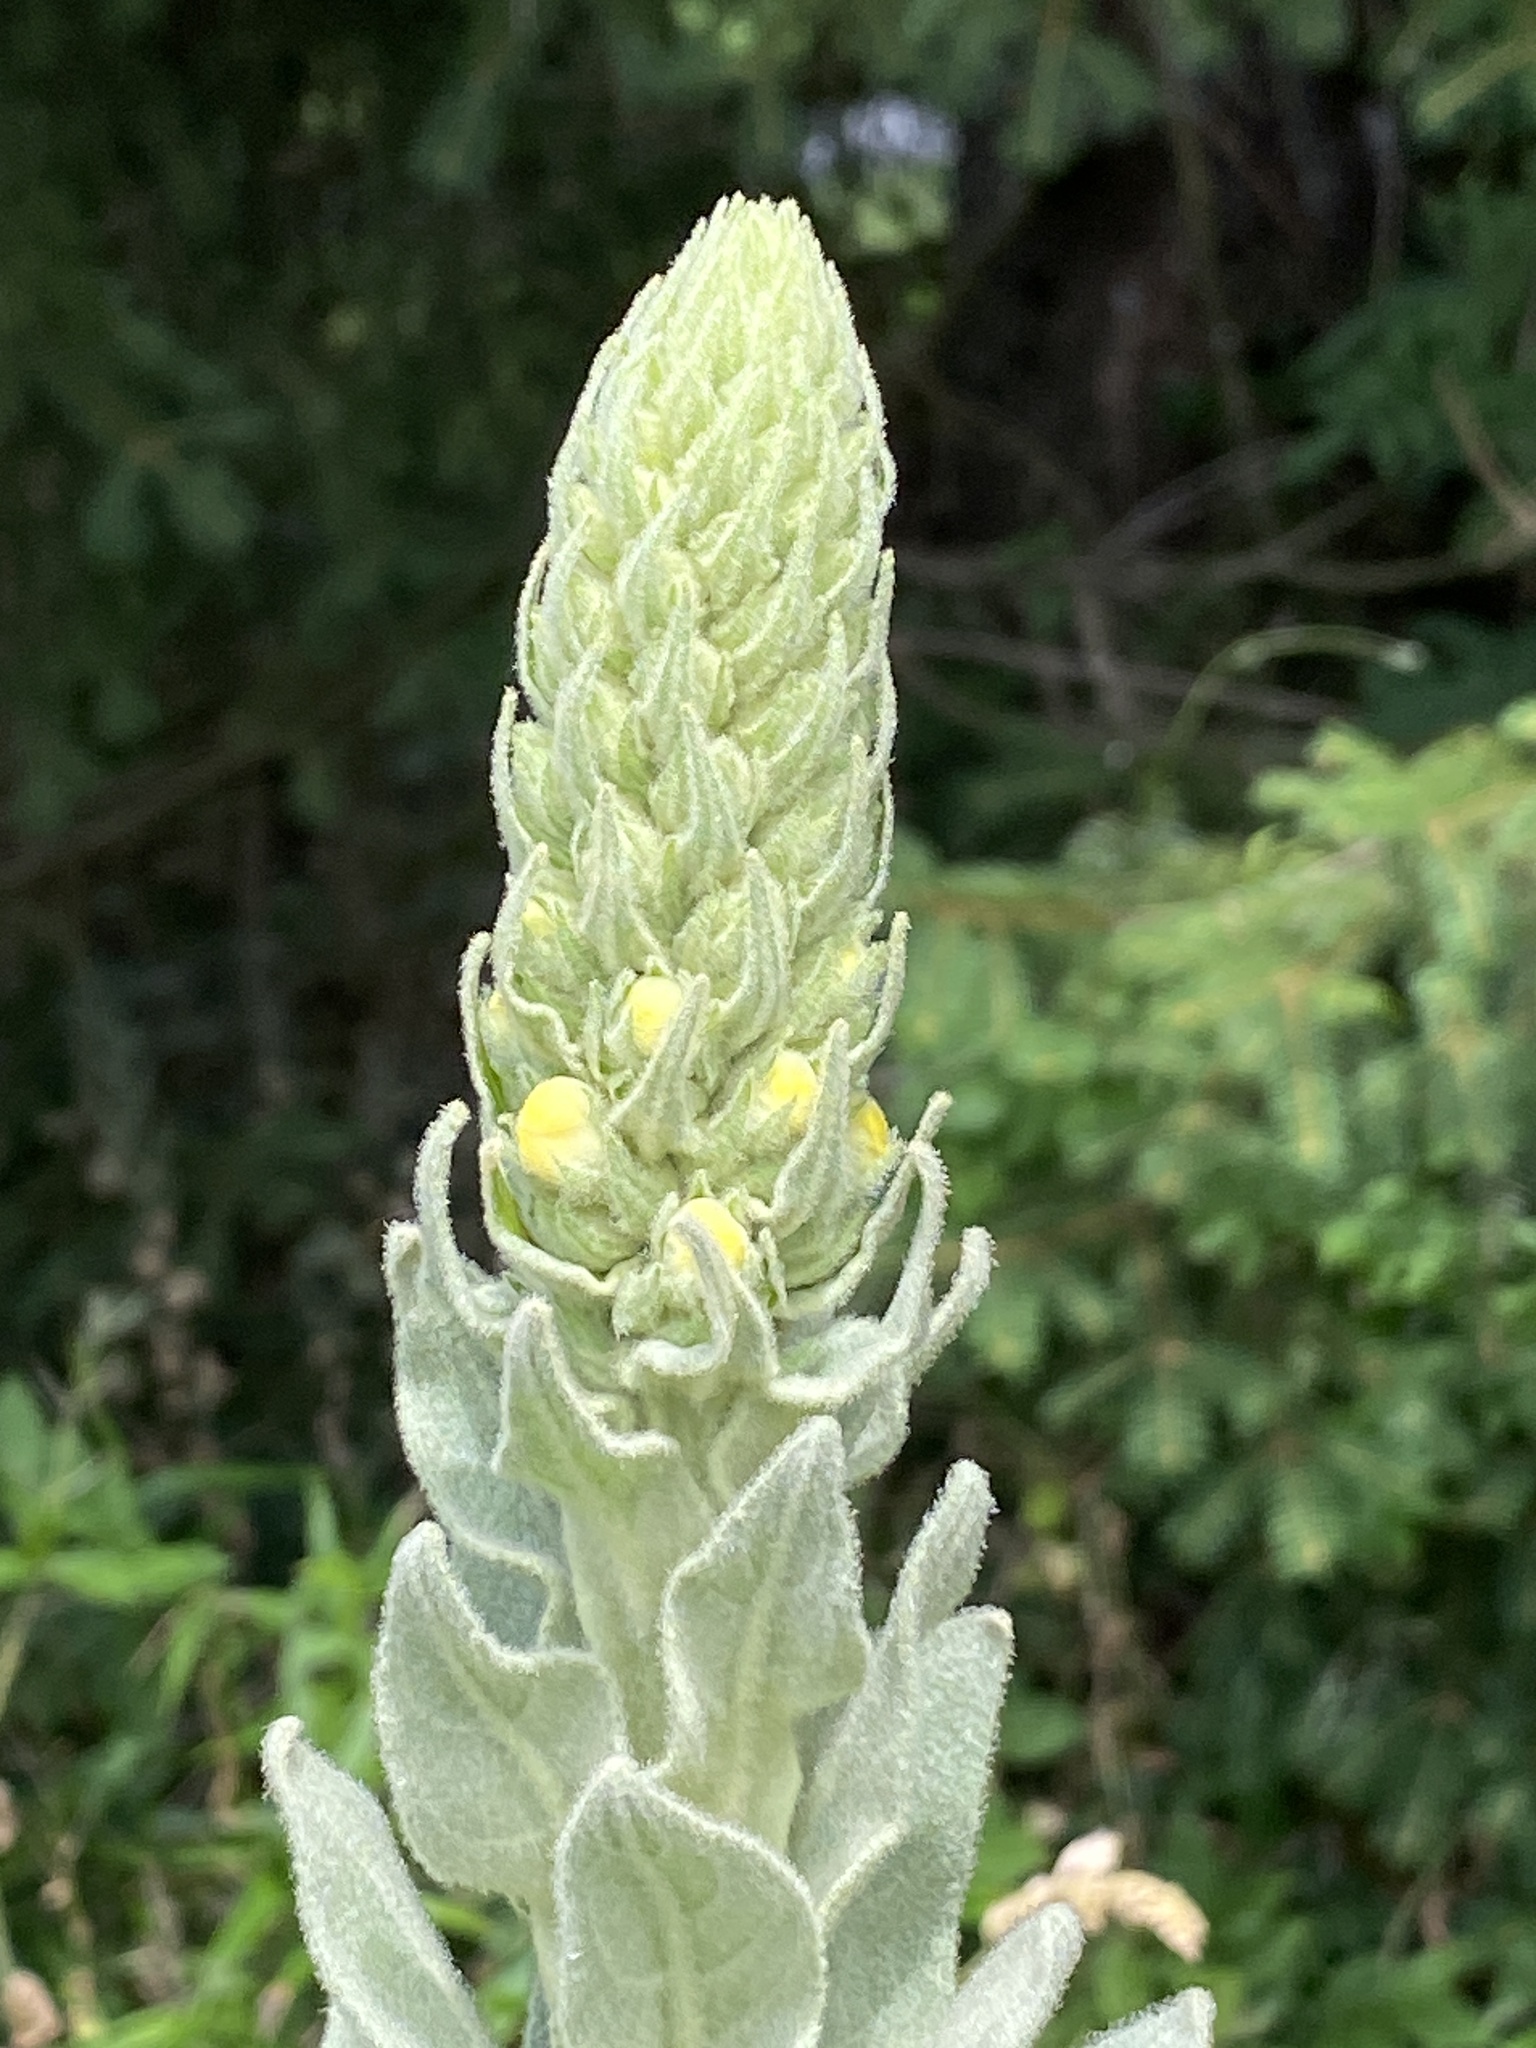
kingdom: Plantae
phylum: Tracheophyta
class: Magnoliopsida
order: Lamiales
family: Scrophulariaceae
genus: Verbascum
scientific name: Verbascum thapsus
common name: Common mullein
